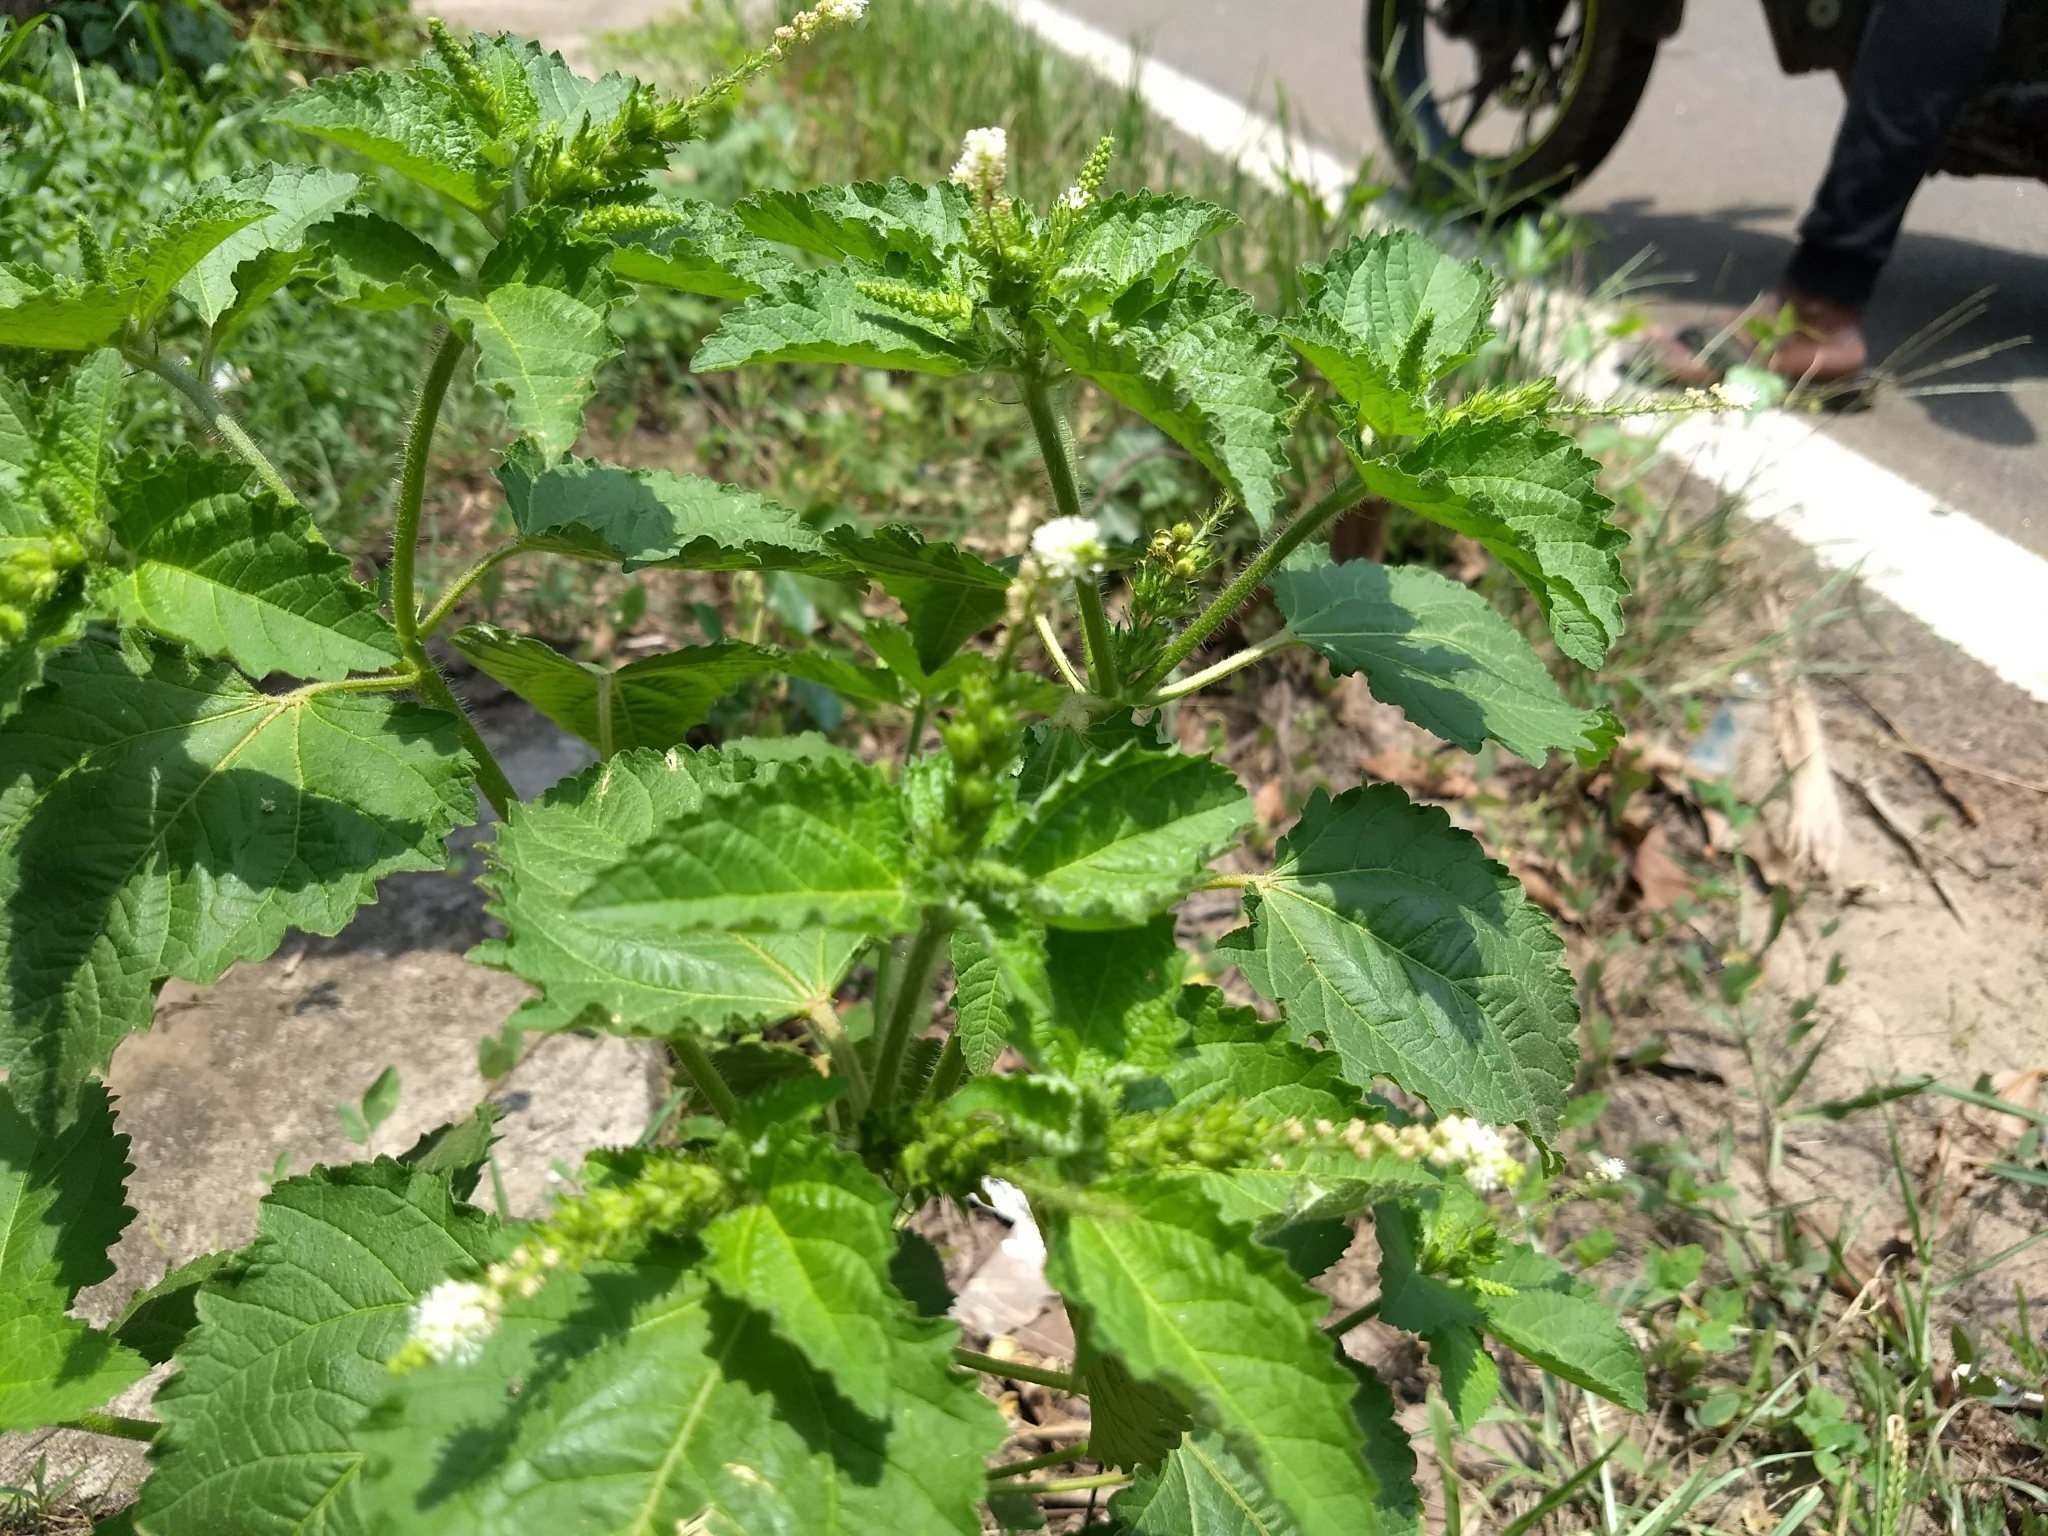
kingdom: Plantae
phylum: Tracheophyta
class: Magnoliopsida
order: Malpighiales
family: Euphorbiaceae
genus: Croton
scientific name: Croton hirtus
